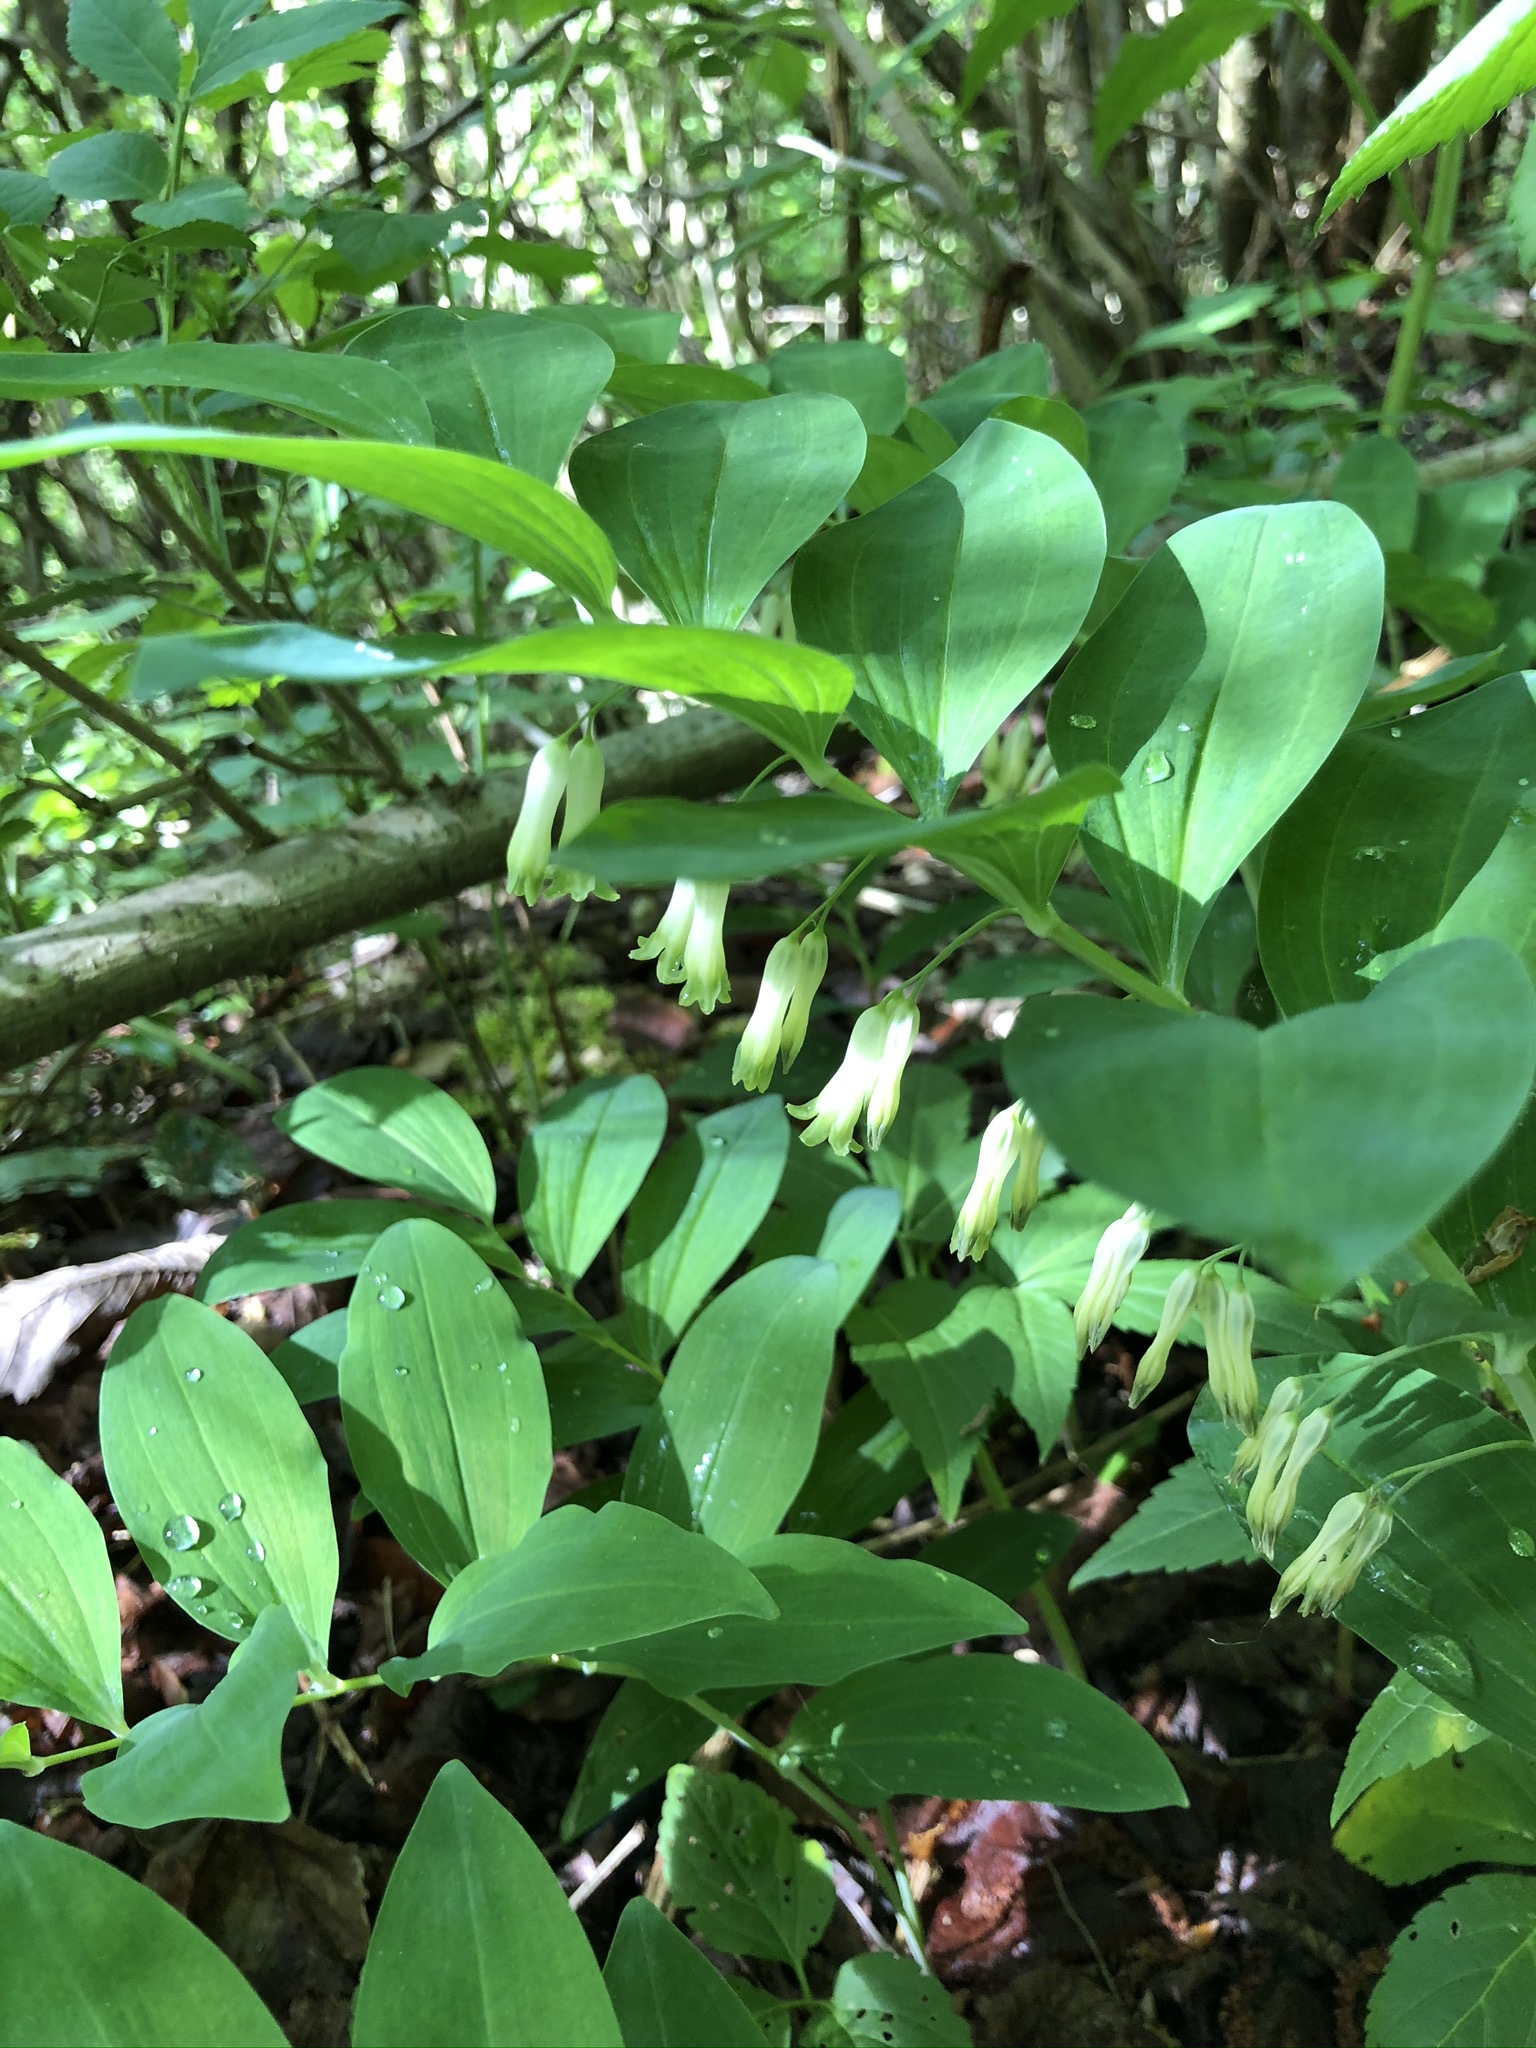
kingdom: Plantae
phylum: Tracheophyta
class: Liliopsida
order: Asparagales
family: Asparagaceae
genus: Polygonatum
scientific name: Polygonatum multiflorum
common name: Solomon's-seal
